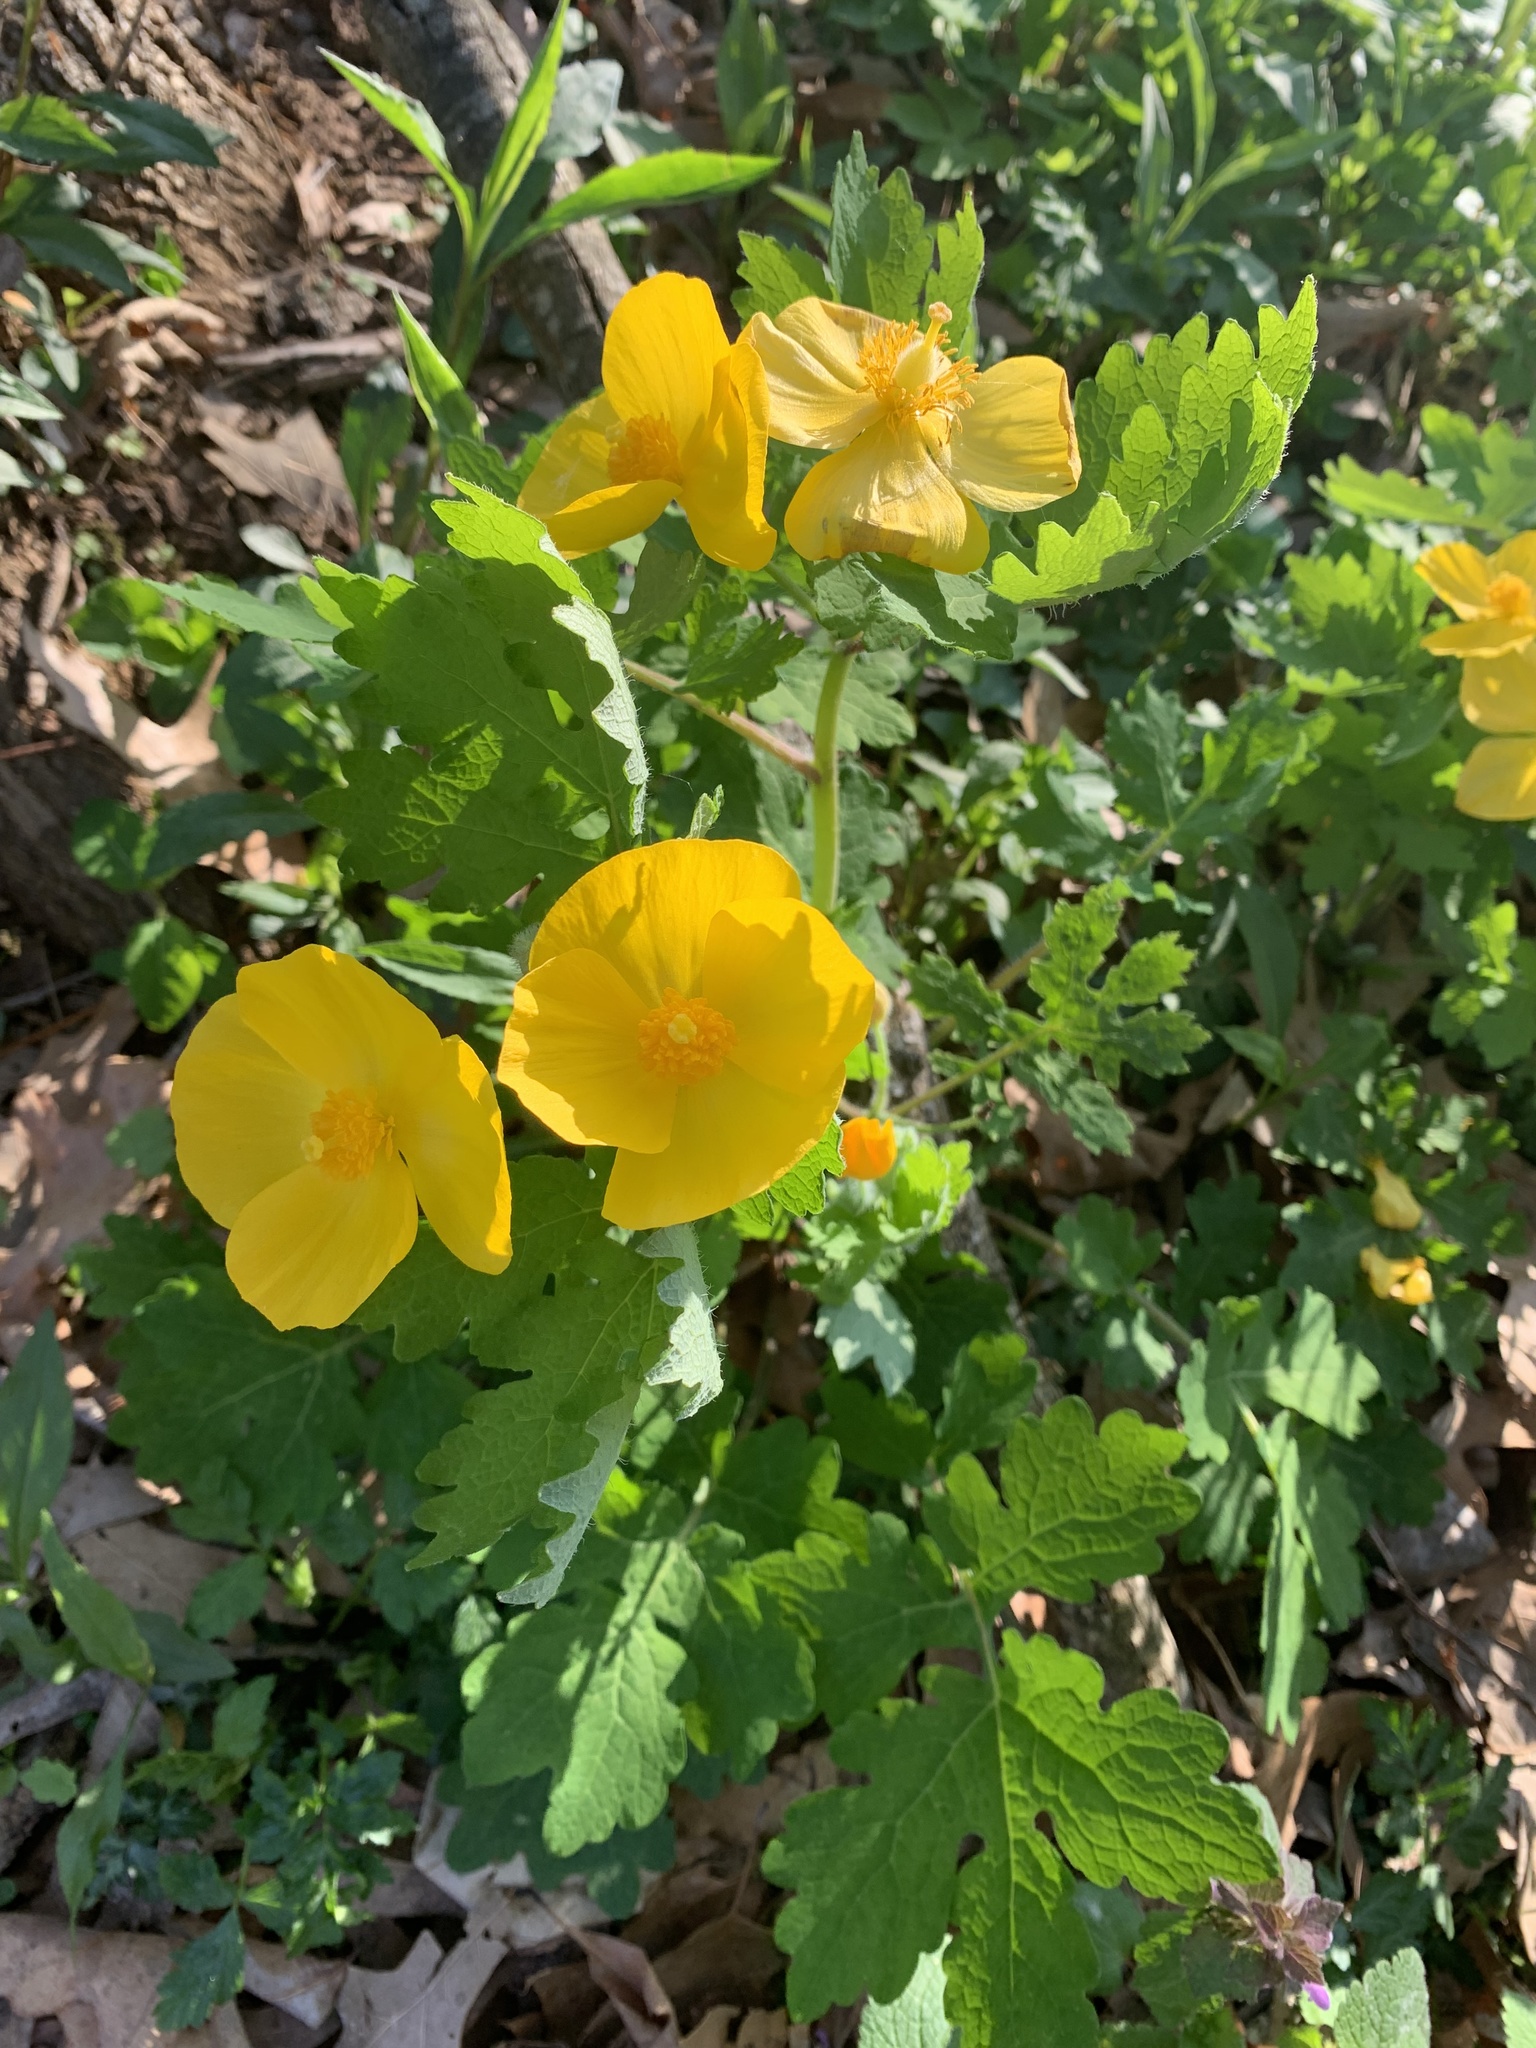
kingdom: Plantae
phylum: Tracheophyta
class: Magnoliopsida
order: Ranunculales
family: Papaveraceae
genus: Stylophorum
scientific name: Stylophorum diphyllum
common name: Celandine poppy
